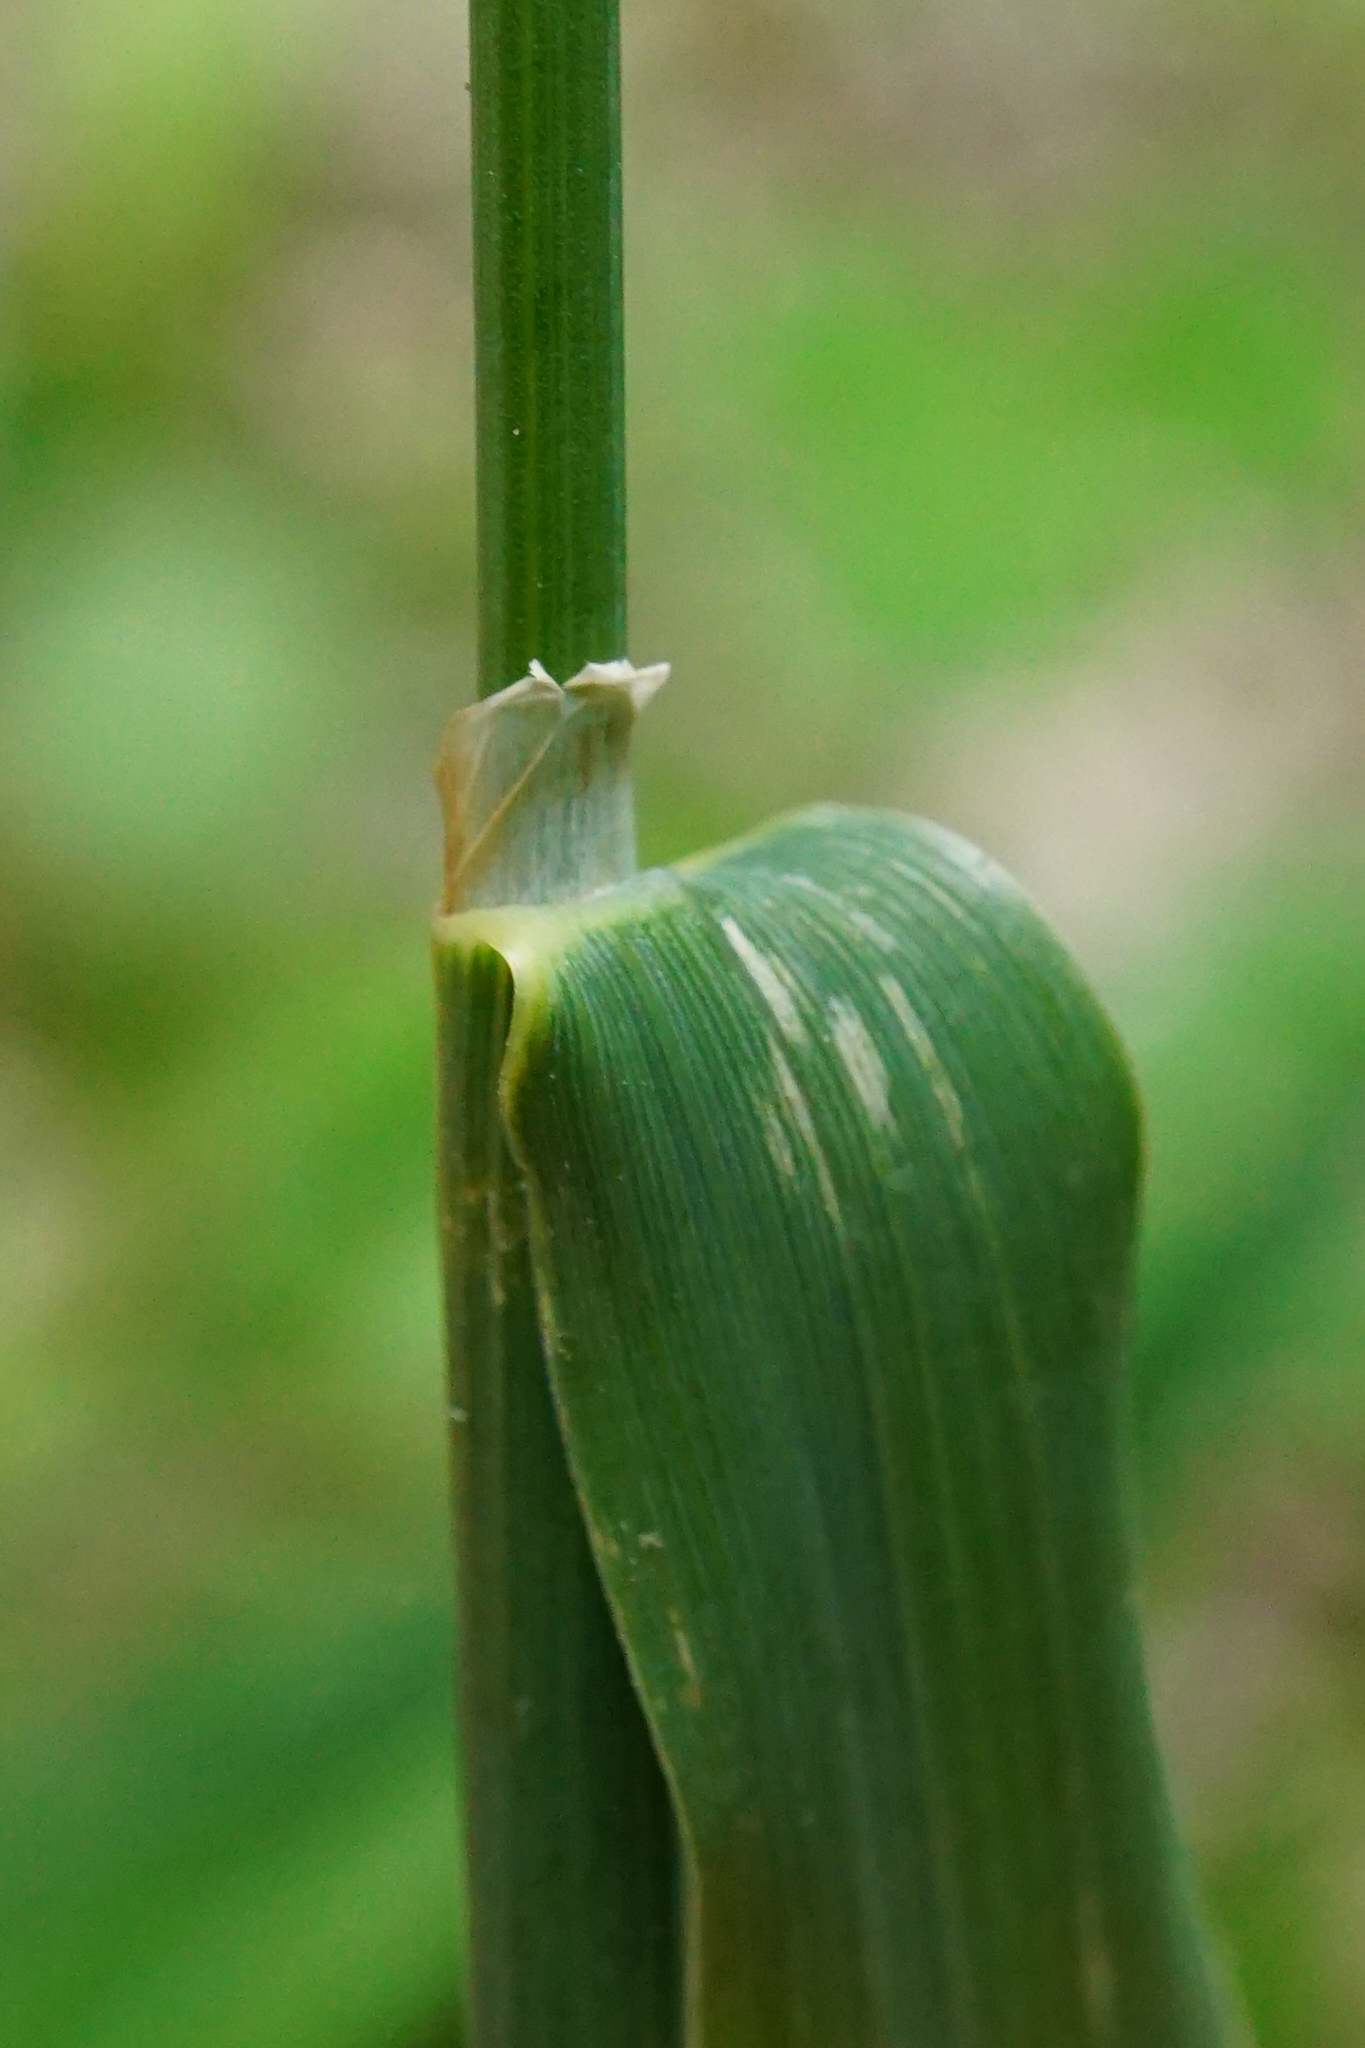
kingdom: Plantae
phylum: Tracheophyta
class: Liliopsida
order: Poales
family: Poaceae
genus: Phleum
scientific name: Phleum pratense
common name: Timothy grass
